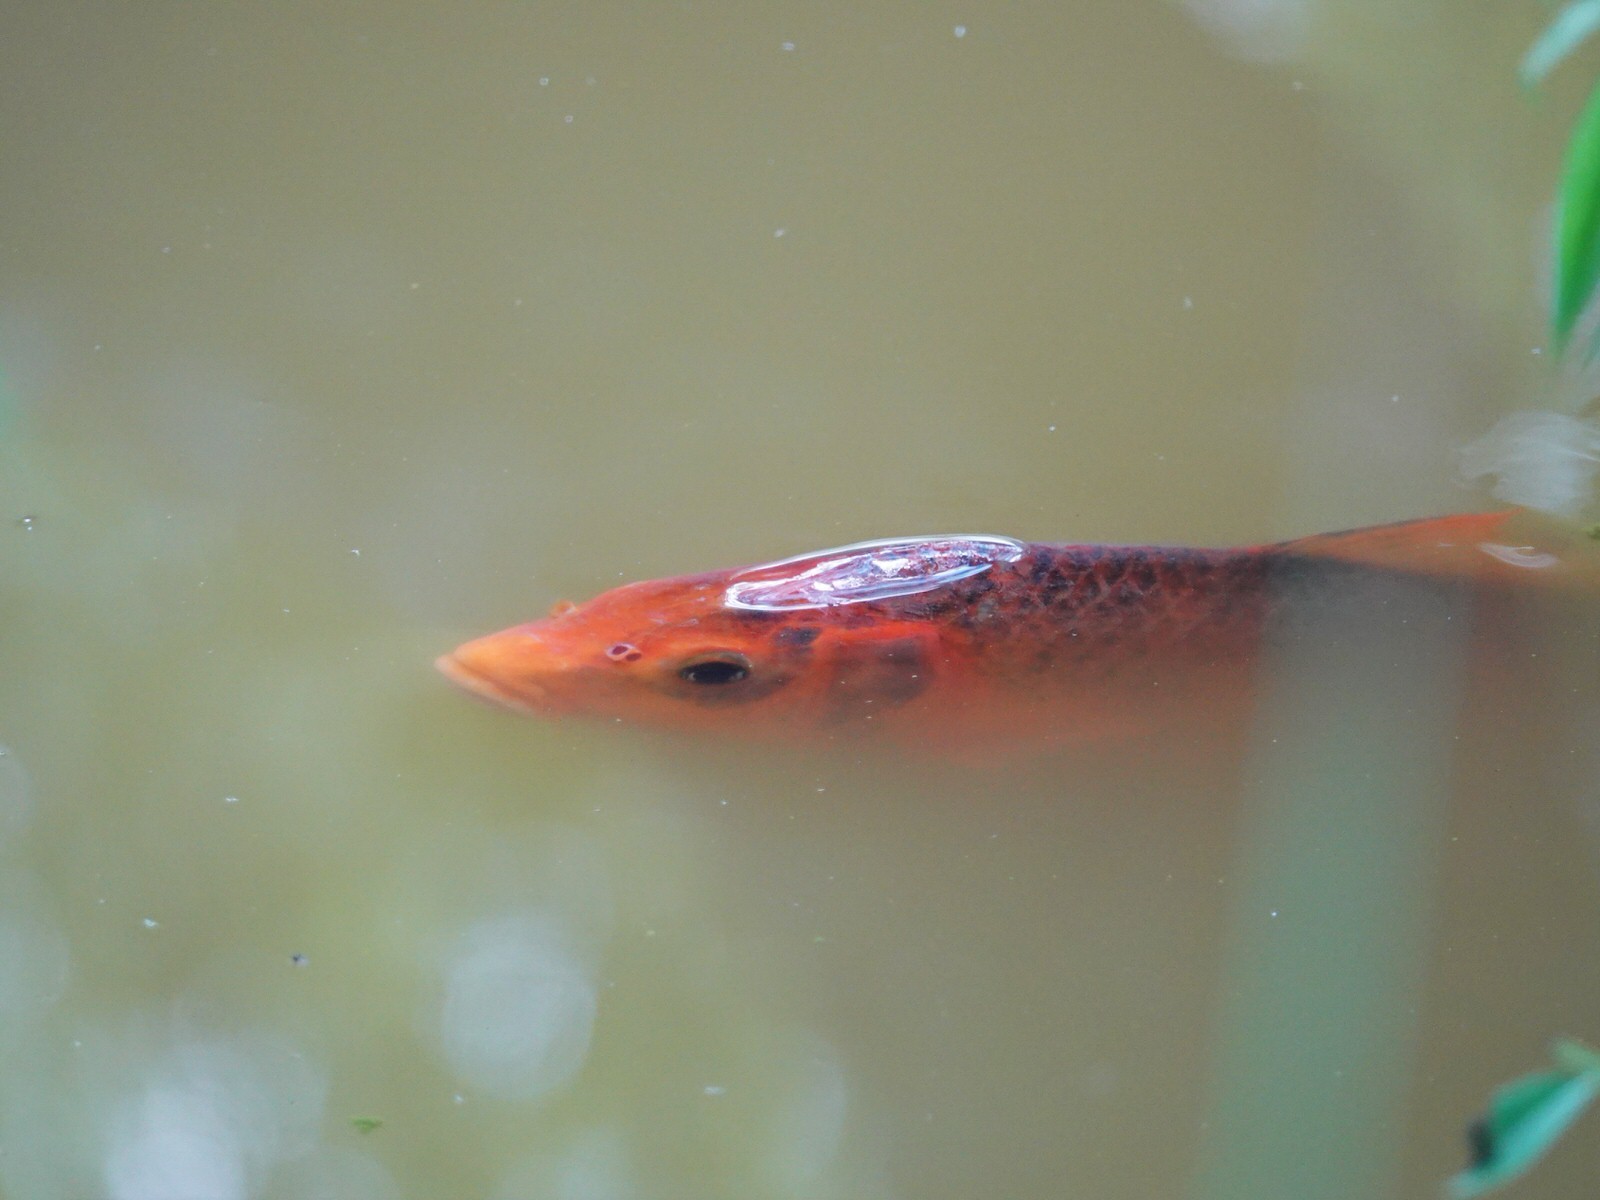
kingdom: Animalia
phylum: Chordata
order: Cypriniformes
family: Cyprinidae
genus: Cyprinus
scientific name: Cyprinus rubrofuscus
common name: Koi
